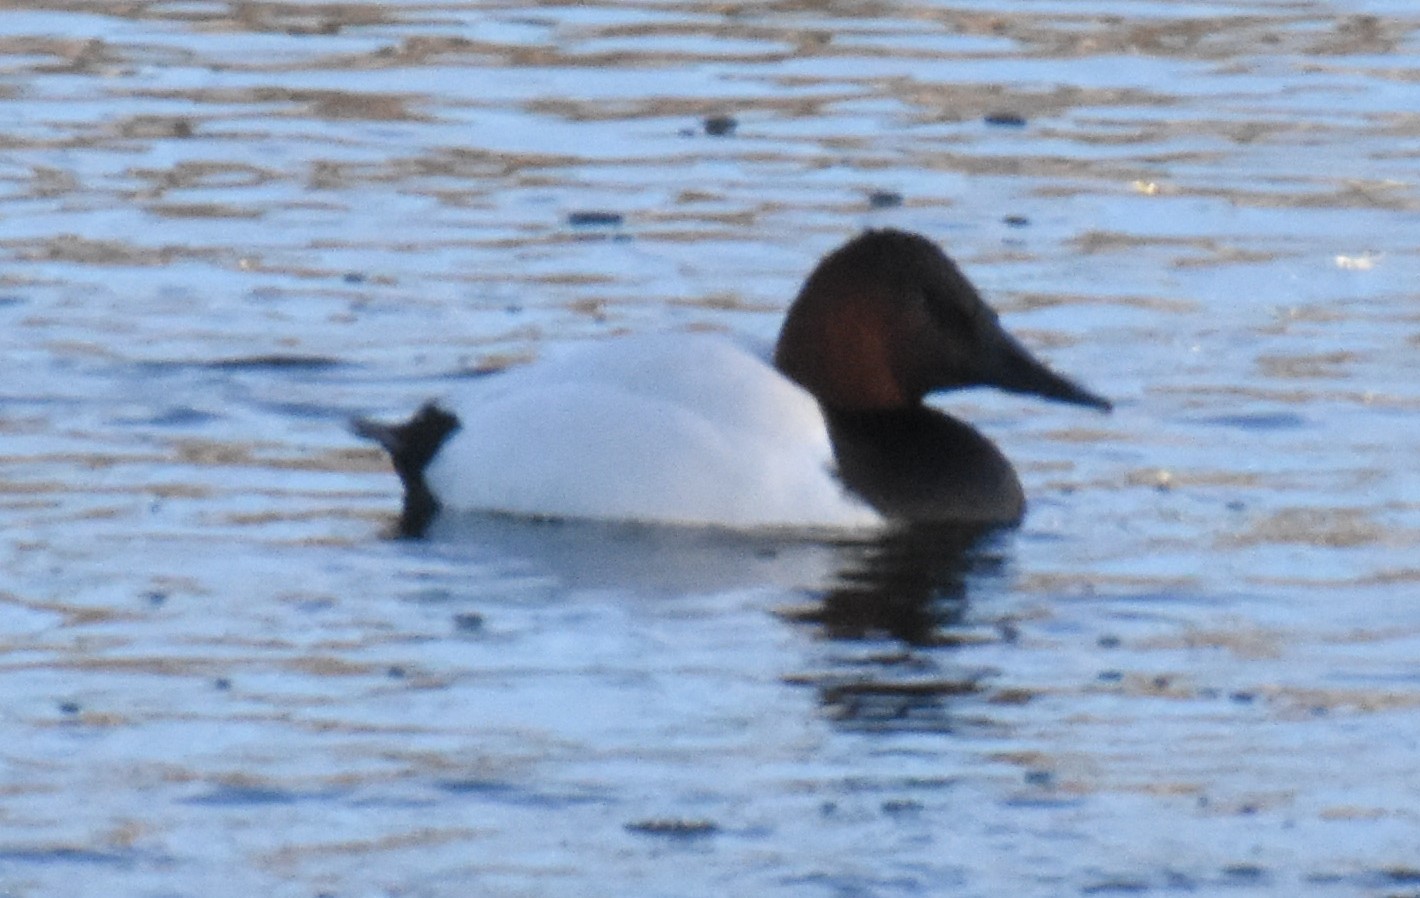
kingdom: Animalia
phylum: Chordata
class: Aves
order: Anseriformes
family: Anatidae
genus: Aythya
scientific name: Aythya valisineria
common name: Canvasback
